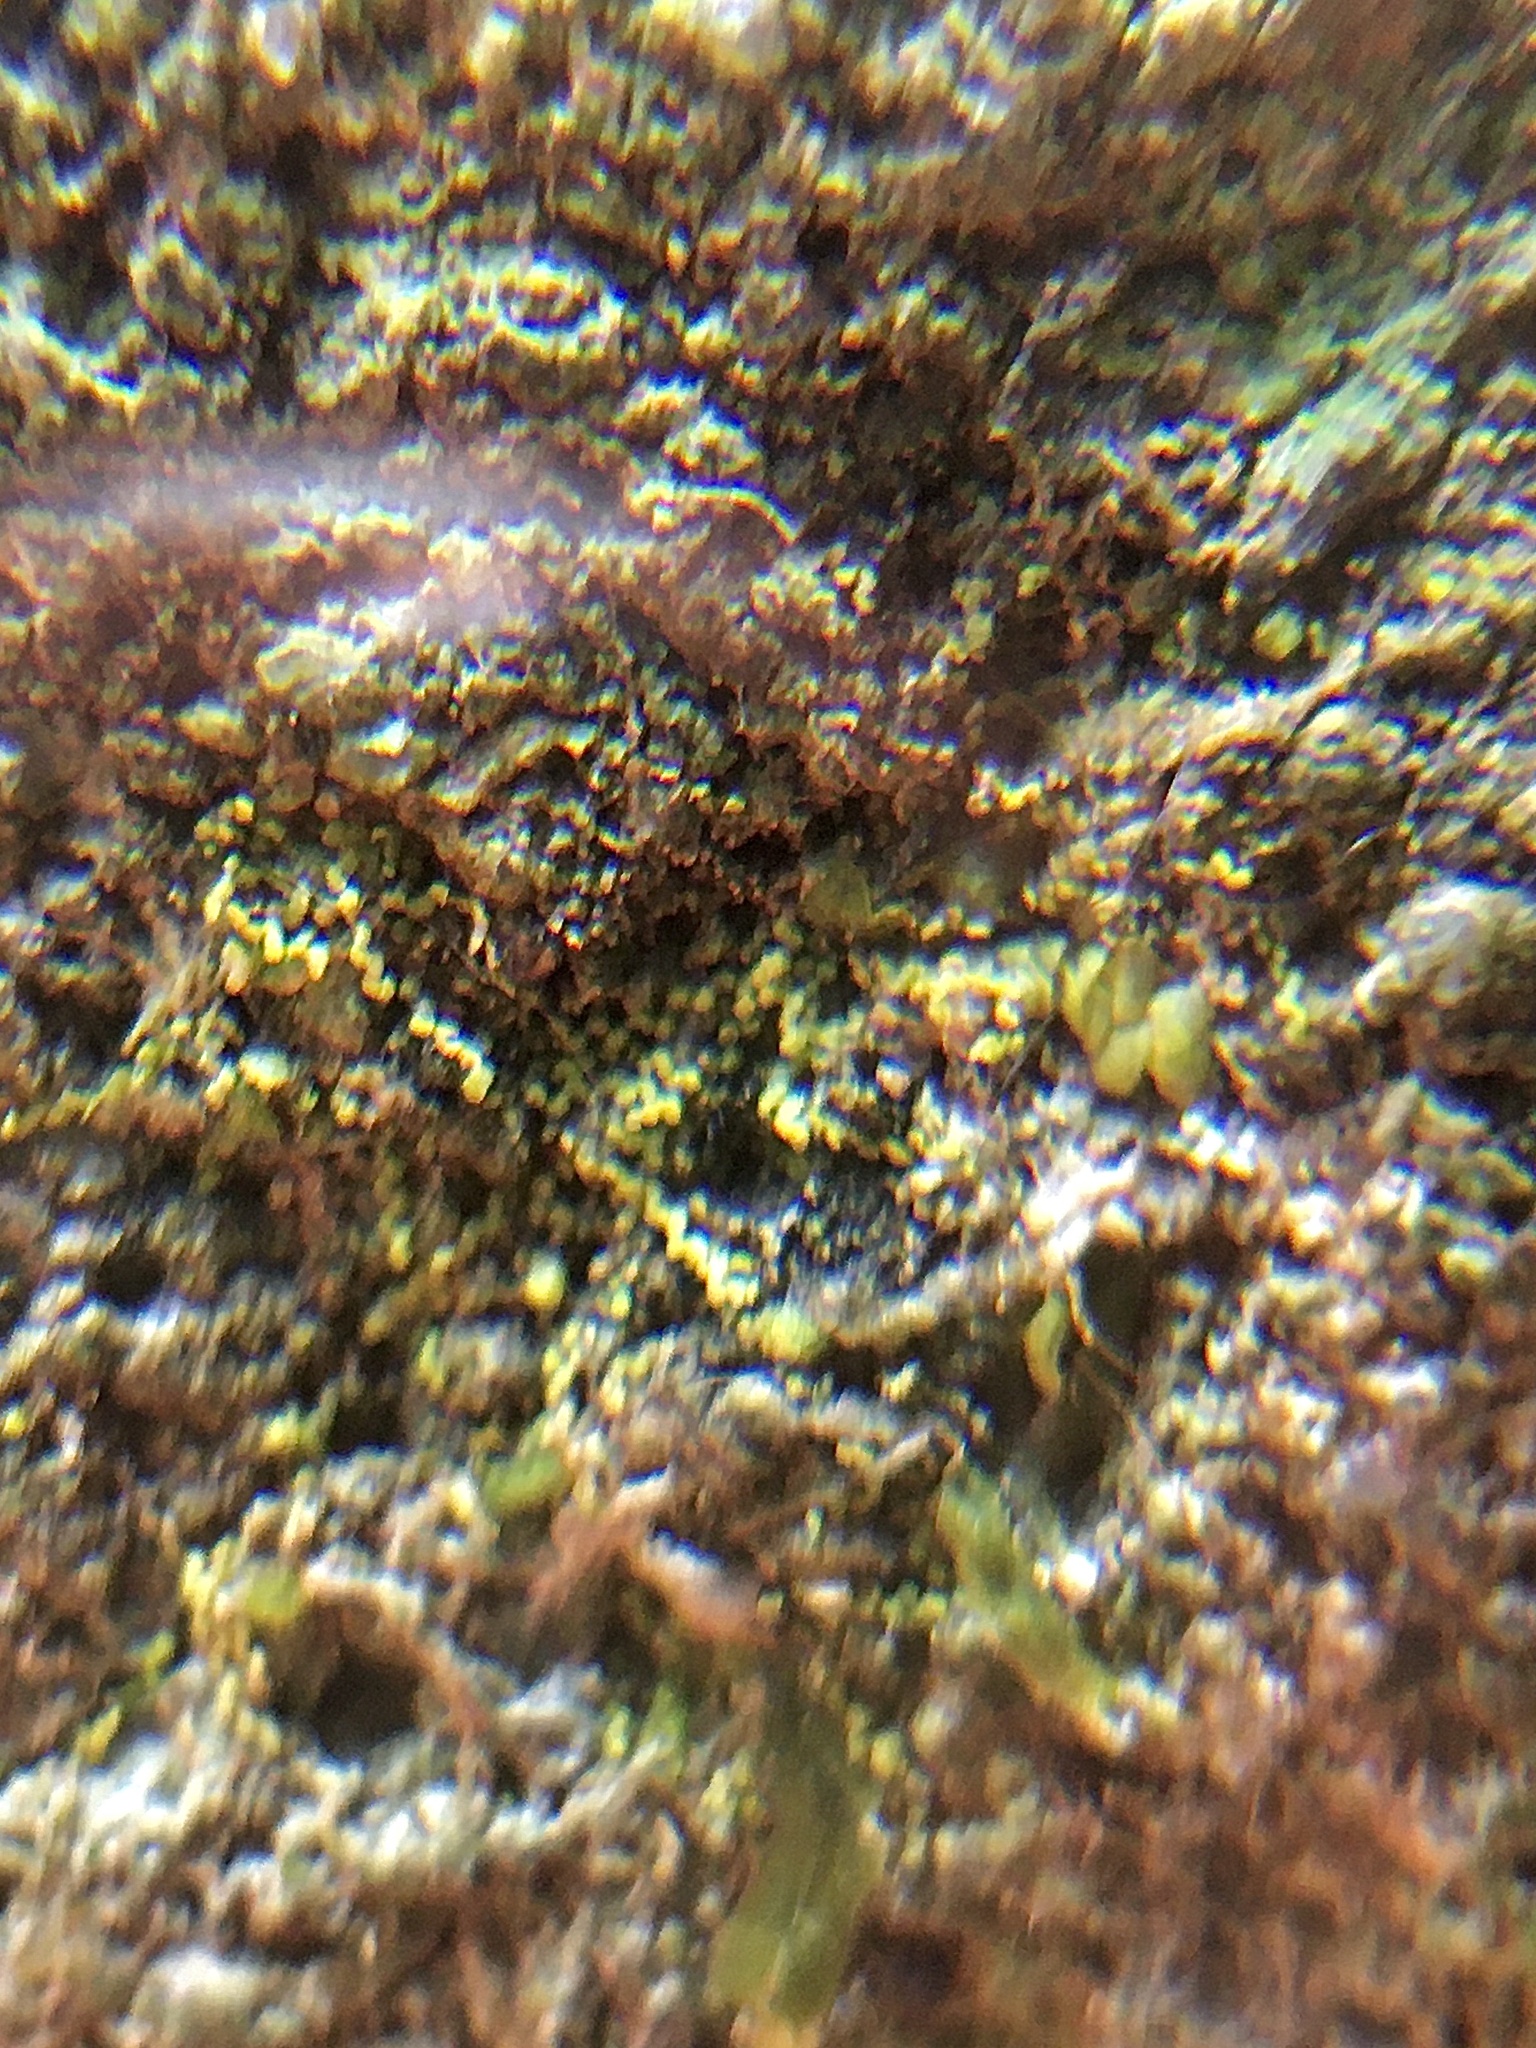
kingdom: Plantae
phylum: Marchantiophyta
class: Jungermanniopsida
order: Porellales
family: Lejeuneaceae
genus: Microlejeunea
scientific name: Microlejeunea africana
